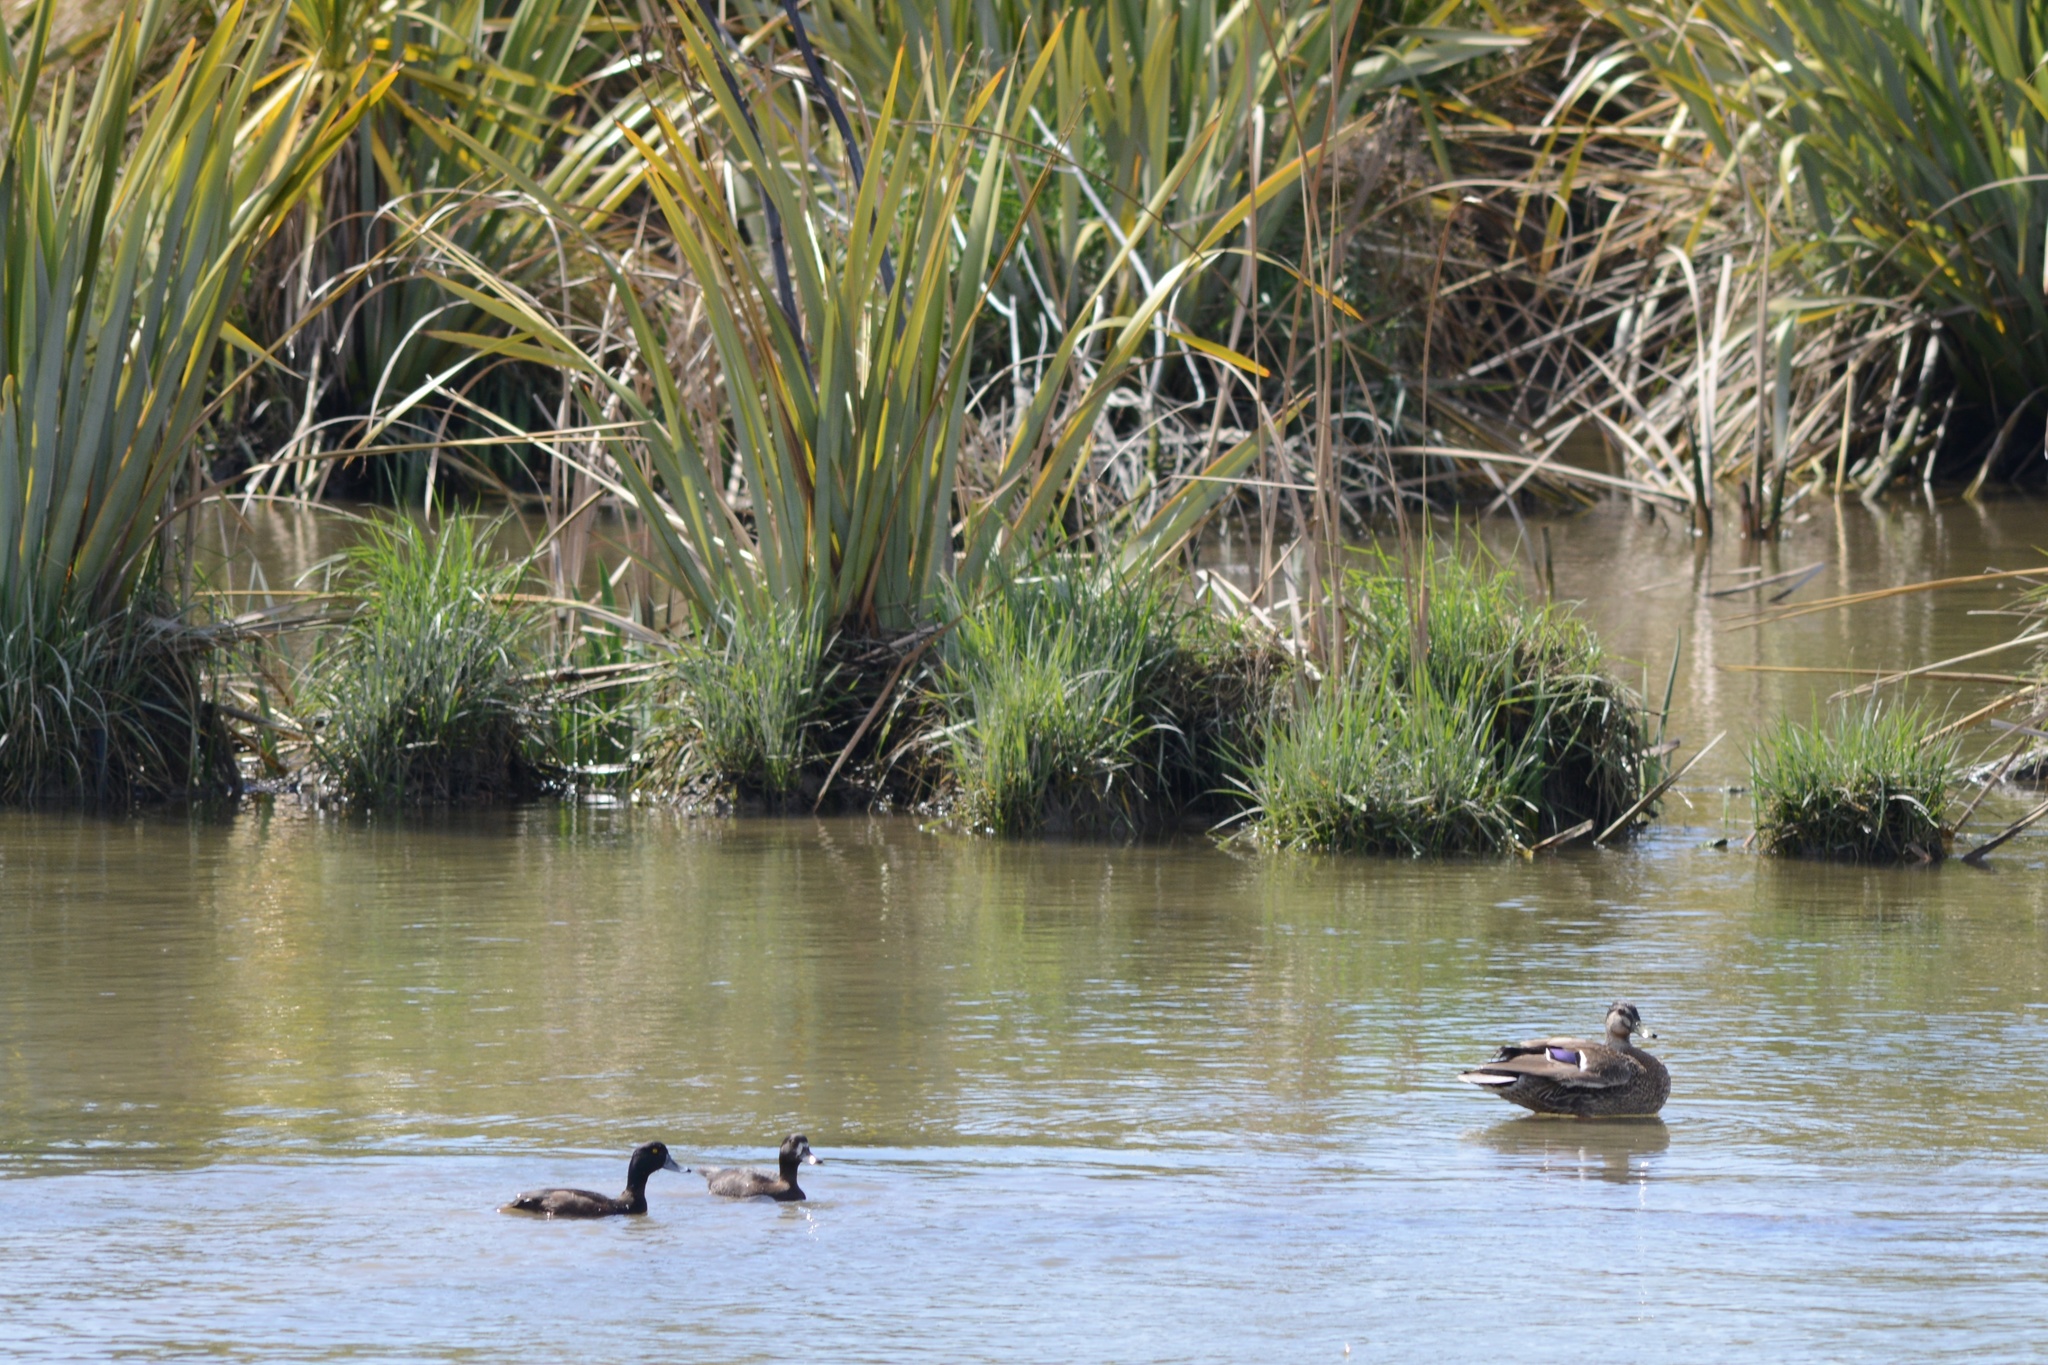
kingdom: Animalia
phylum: Chordata
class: Aves
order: Anseriformes
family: Anatidae
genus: Anas
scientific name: Anas
